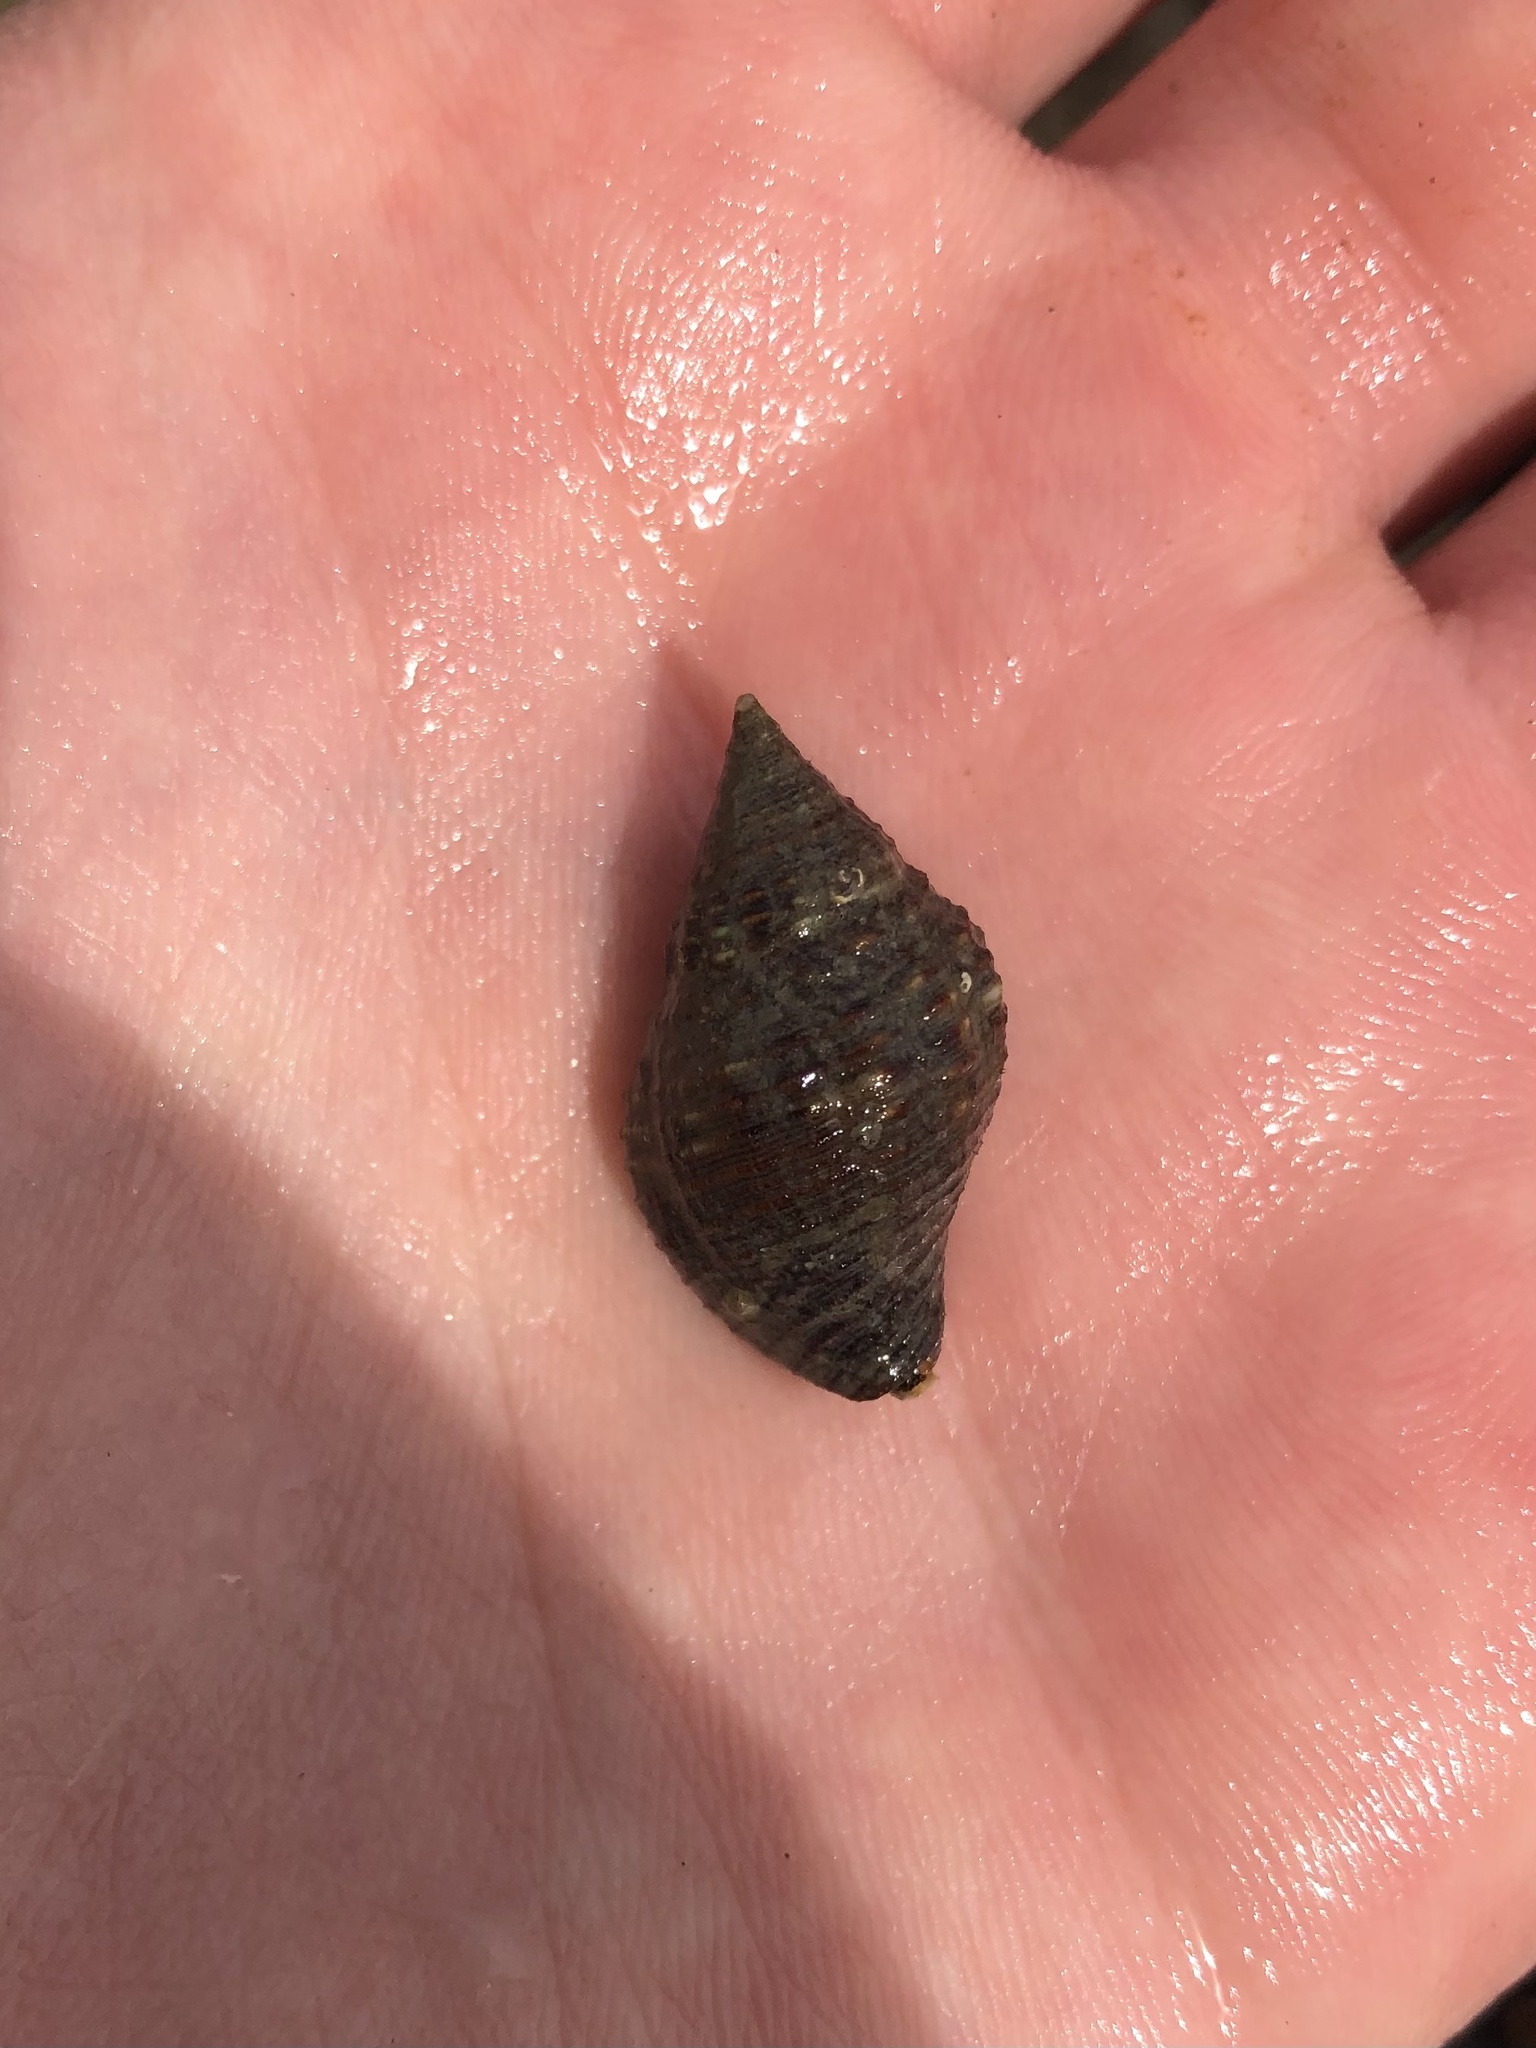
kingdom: Animalia
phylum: Mollusca
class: Gastropoda
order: Neogastropoda
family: Pisaniidae
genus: Gemophos
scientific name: Gemophos tinctus
